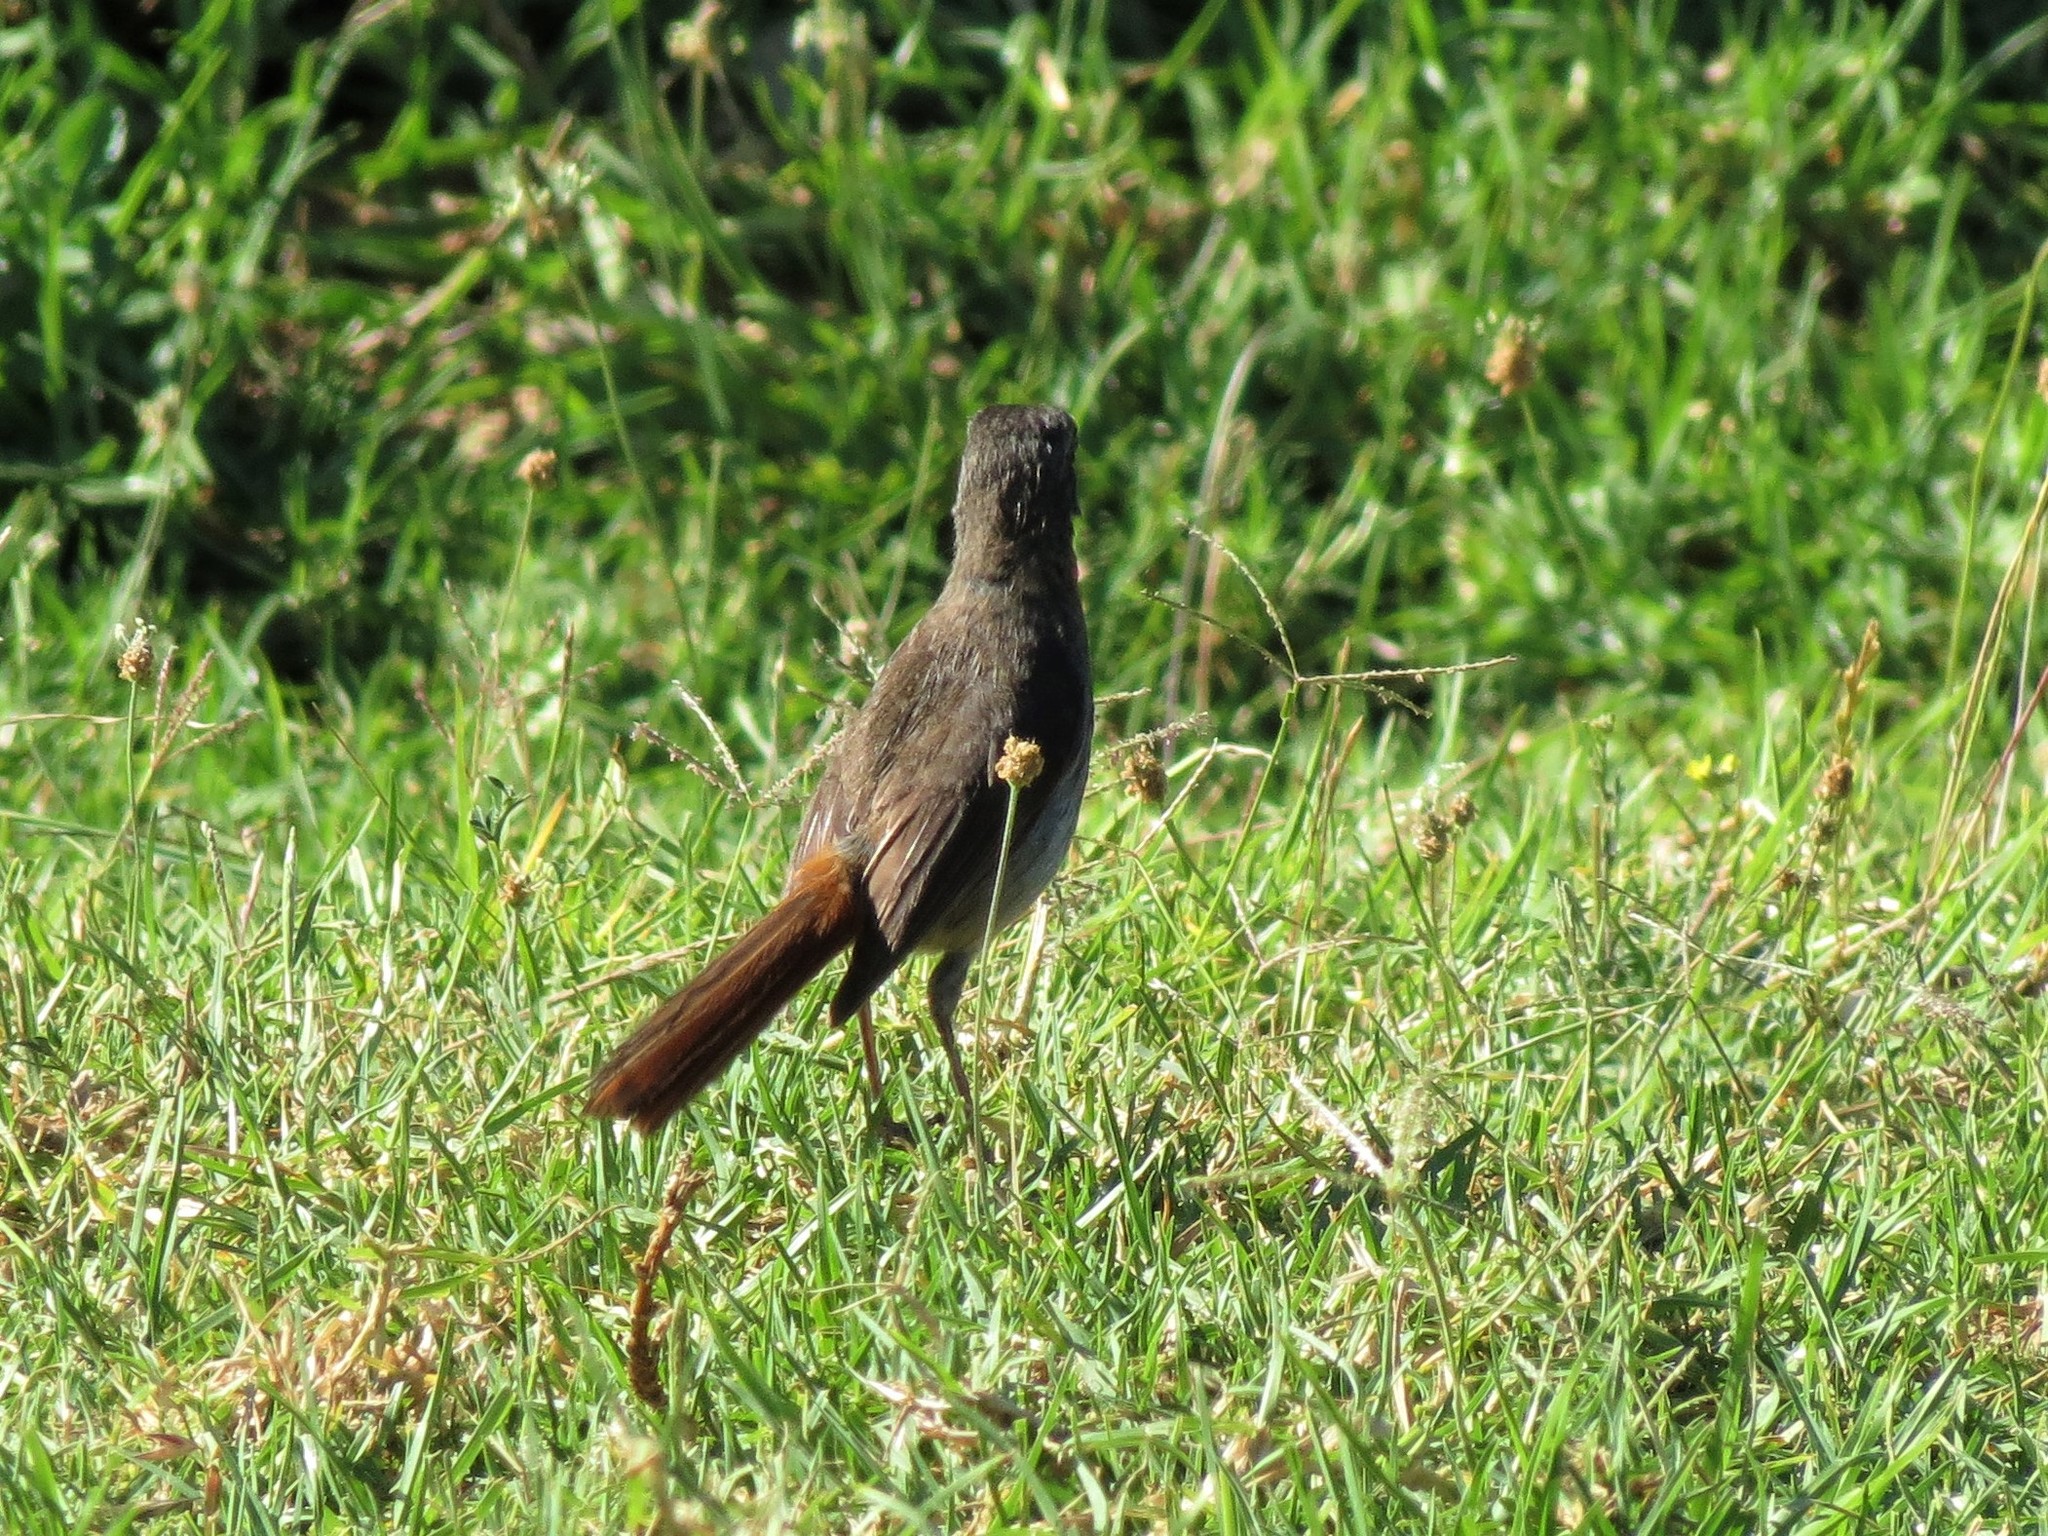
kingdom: Animalia
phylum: Chordata
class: Aves
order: Passeriformes
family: Muscicapidae
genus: Cossypha
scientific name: Cossypha caffra
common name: Cape robin-chat
